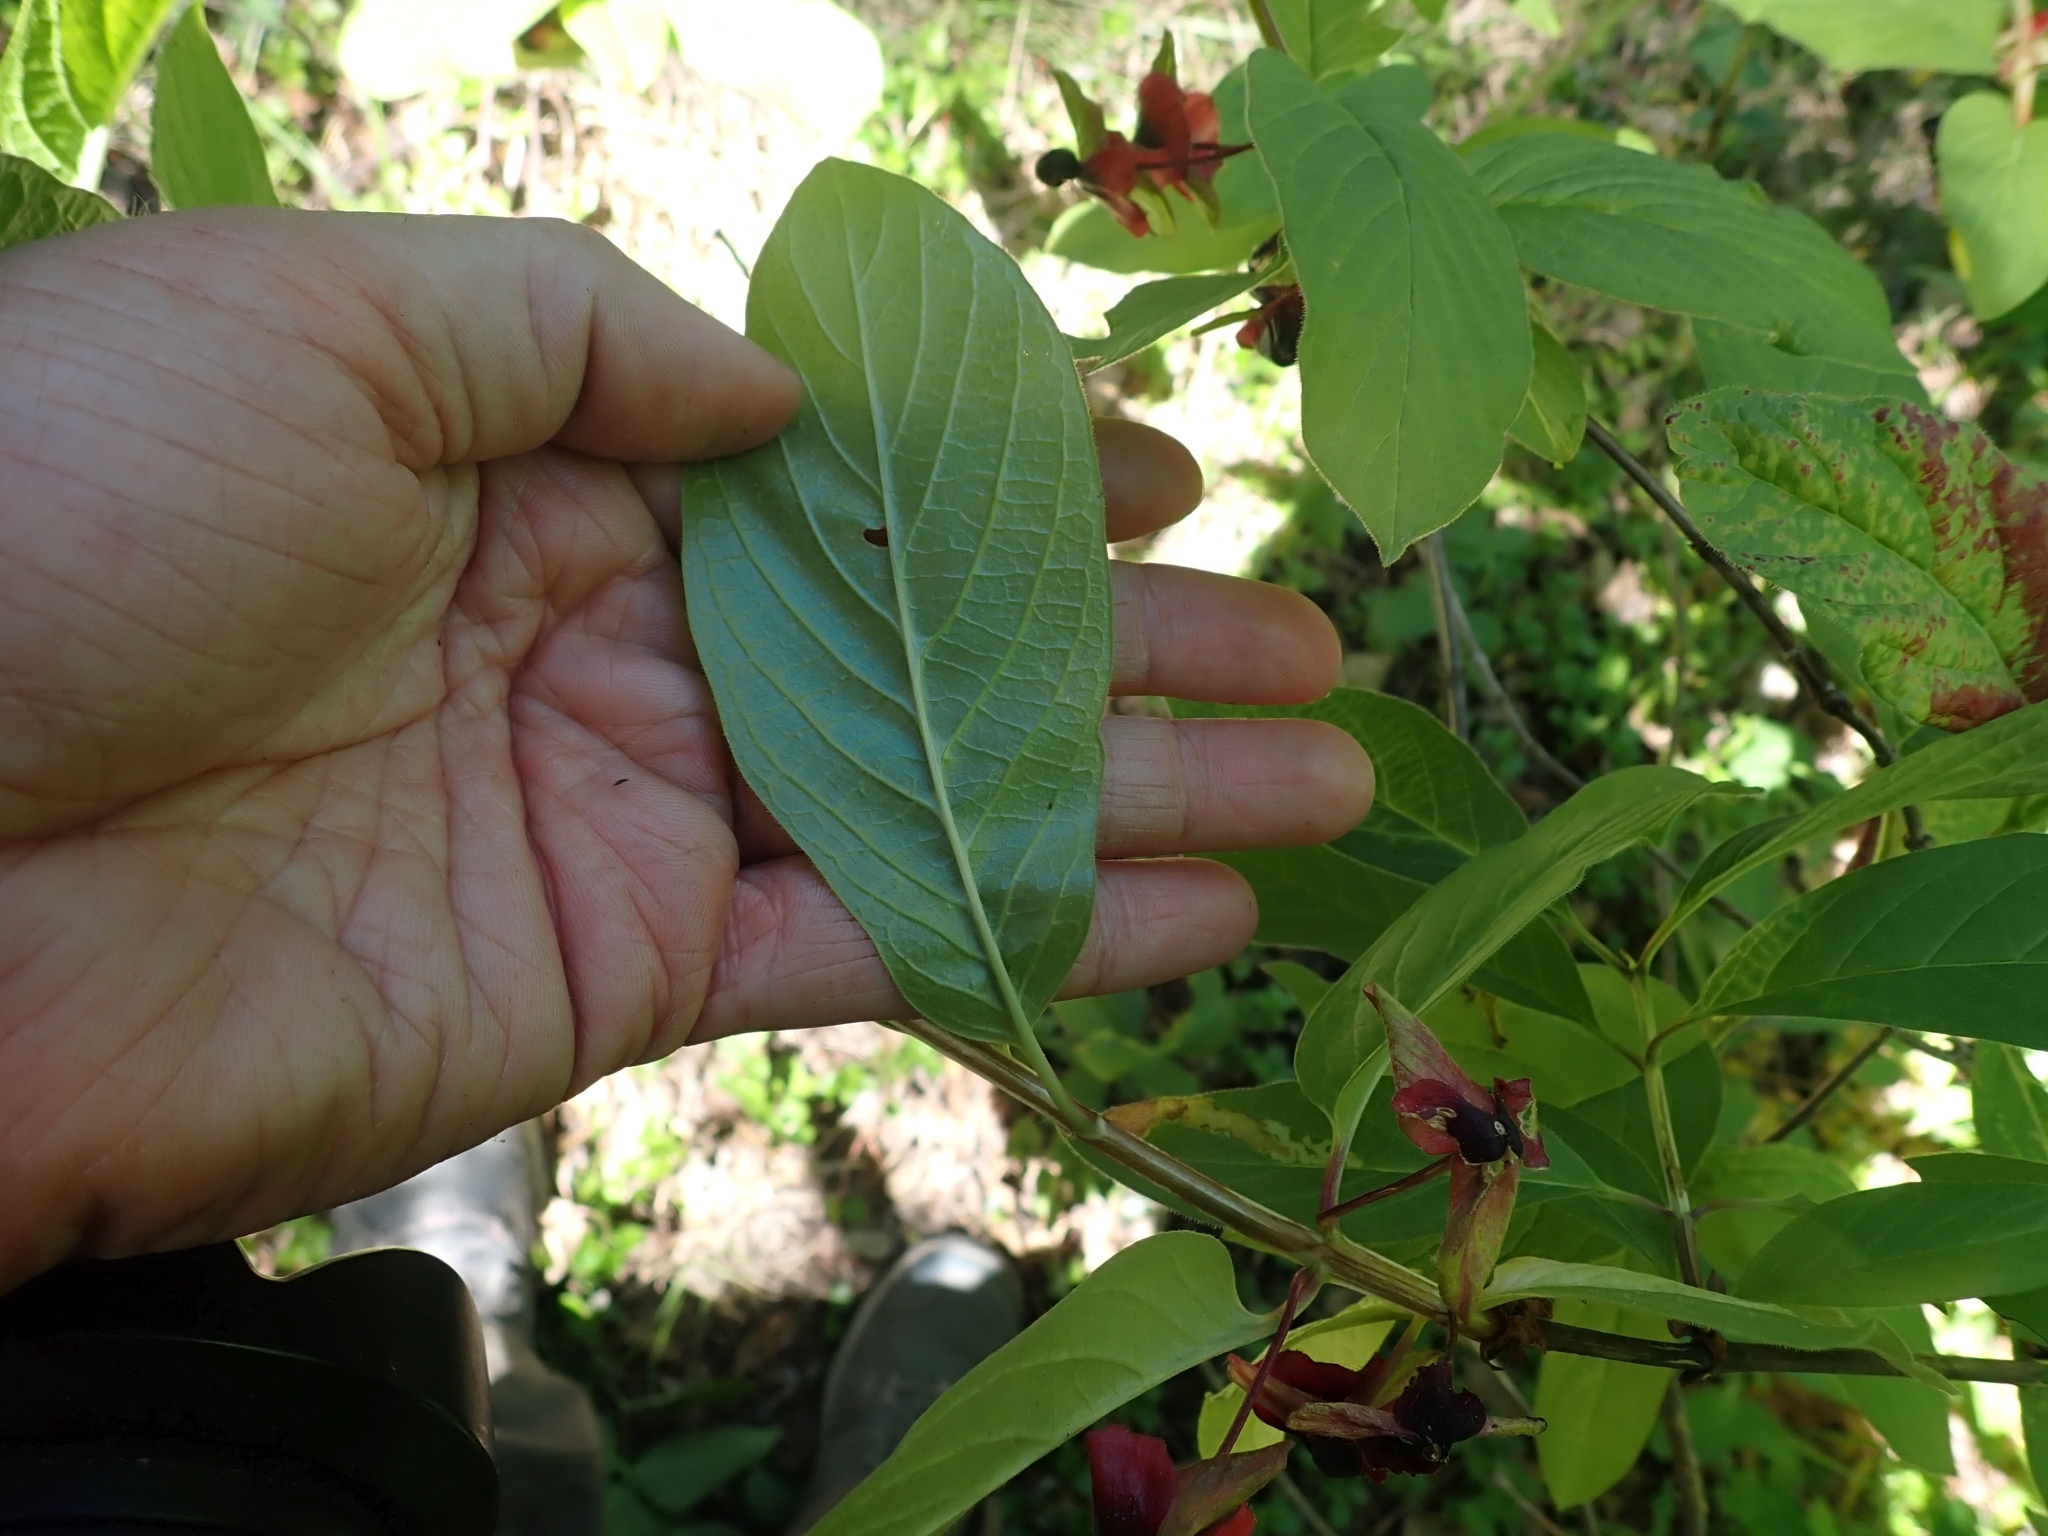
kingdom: Plantae
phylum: Tracheophyta
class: Magnoliopsida
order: Dipsacales
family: Caprifoliaceae
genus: Lonicera
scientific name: Lonicera involucrata
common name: Californian honeysuckle
